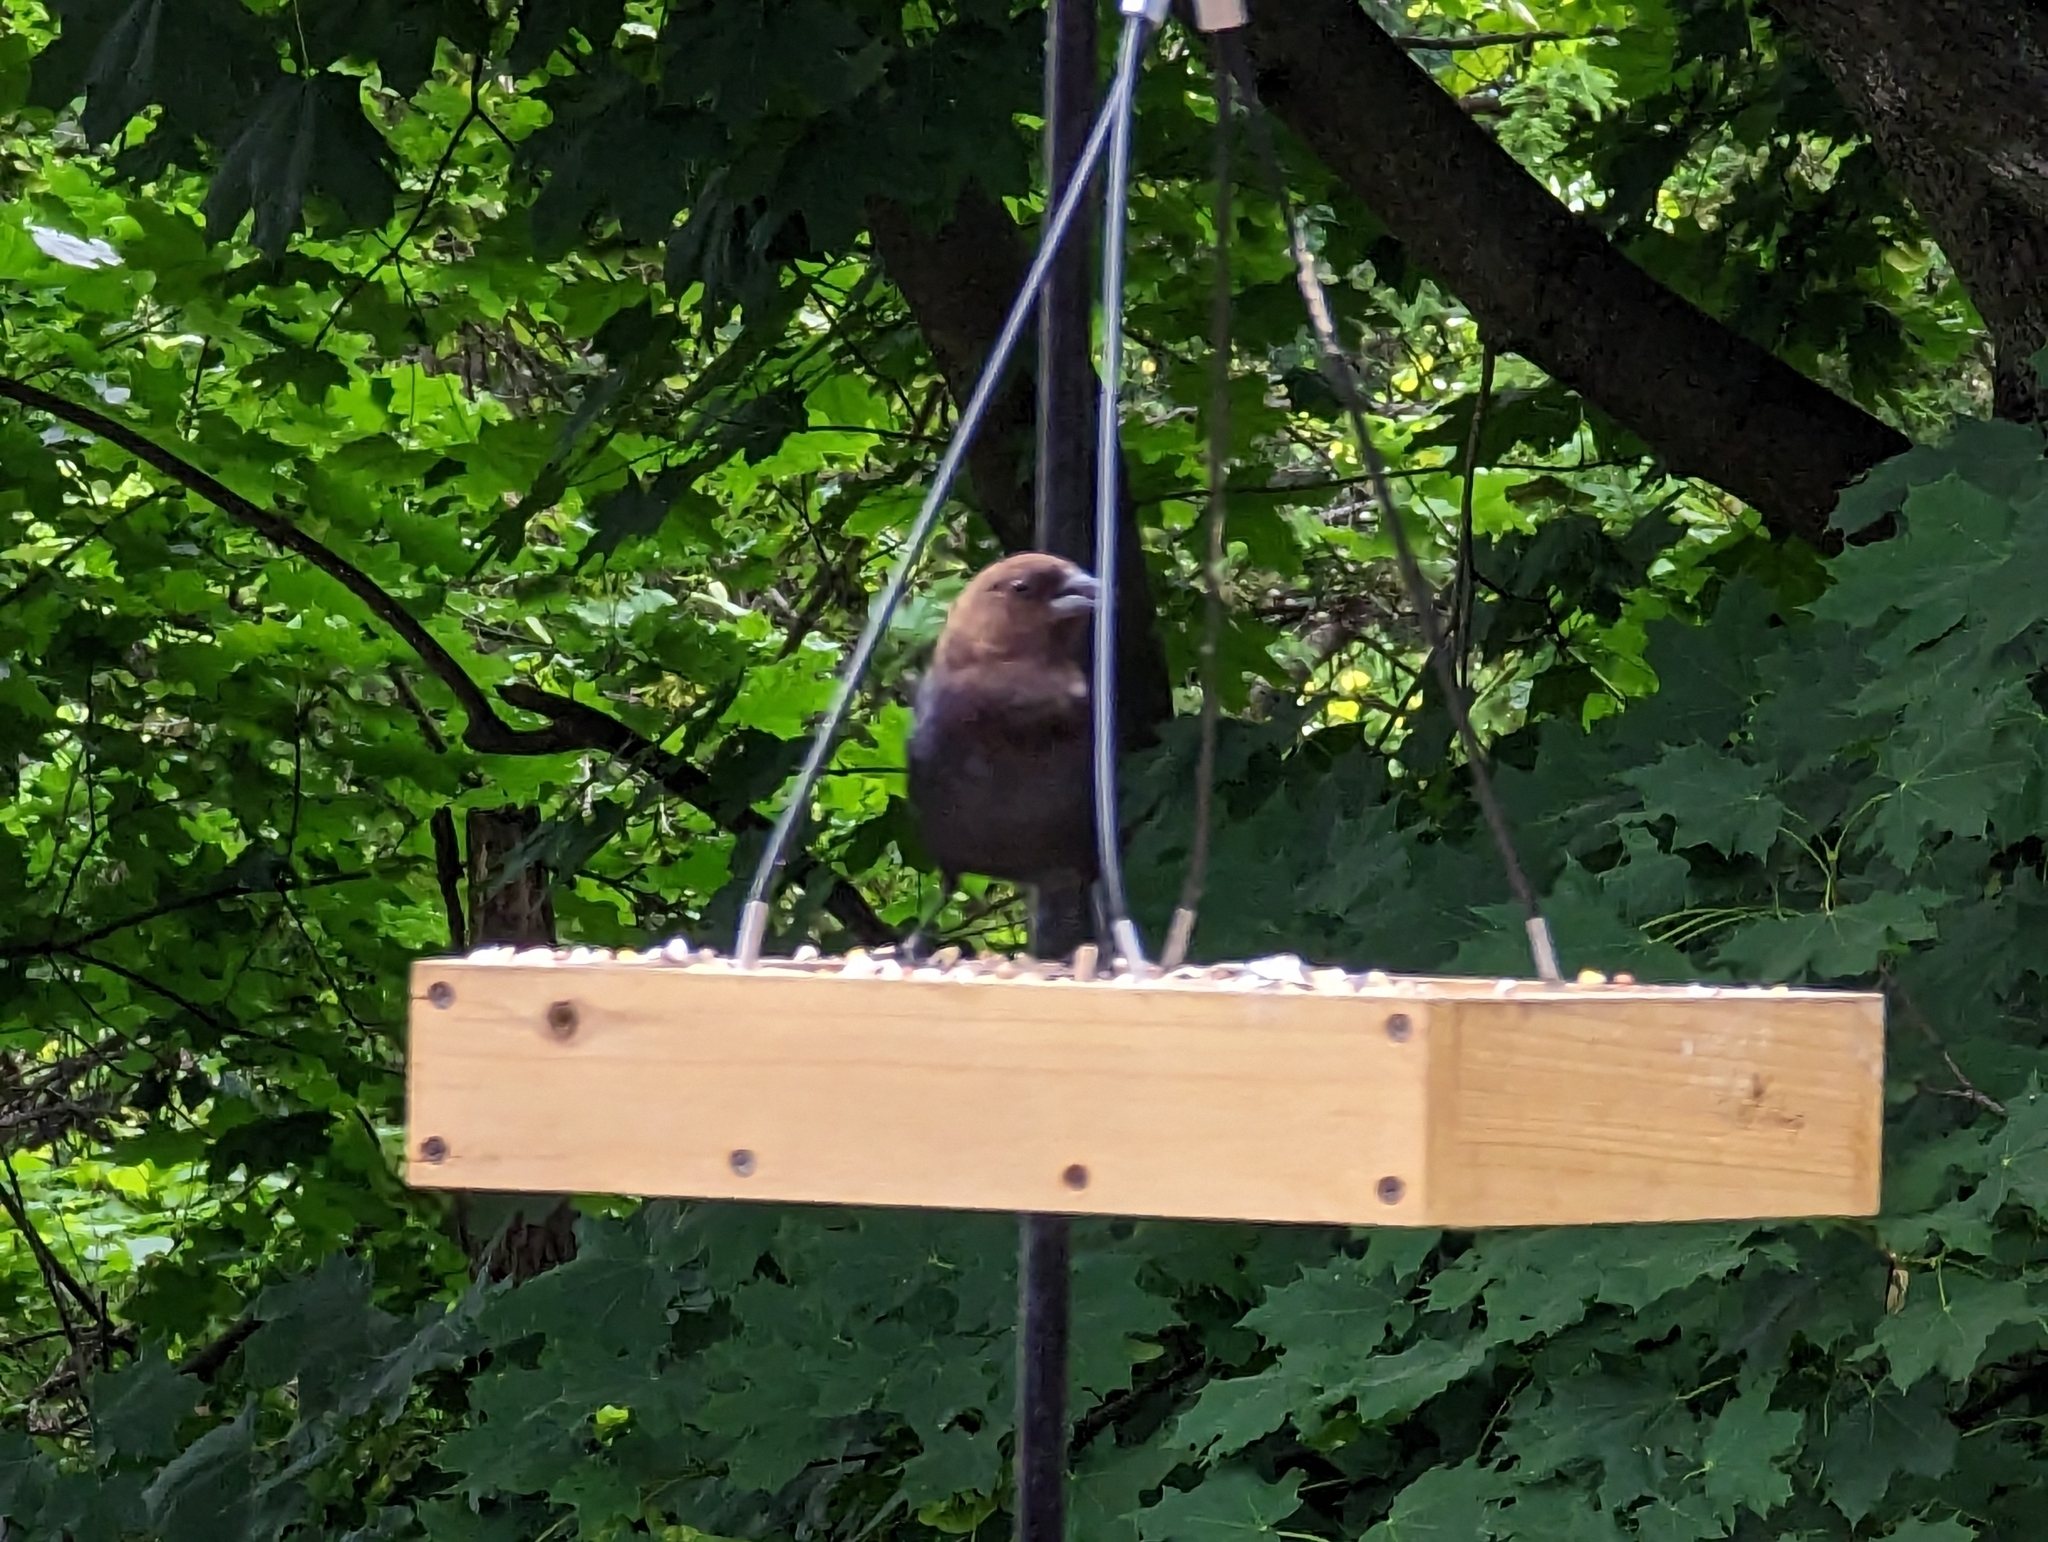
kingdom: Animalia
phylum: Chordata
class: Aves
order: Passeriformes
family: Icteridae
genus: Molothrus
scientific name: Molothrus ater
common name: Brown-headed cowbird
